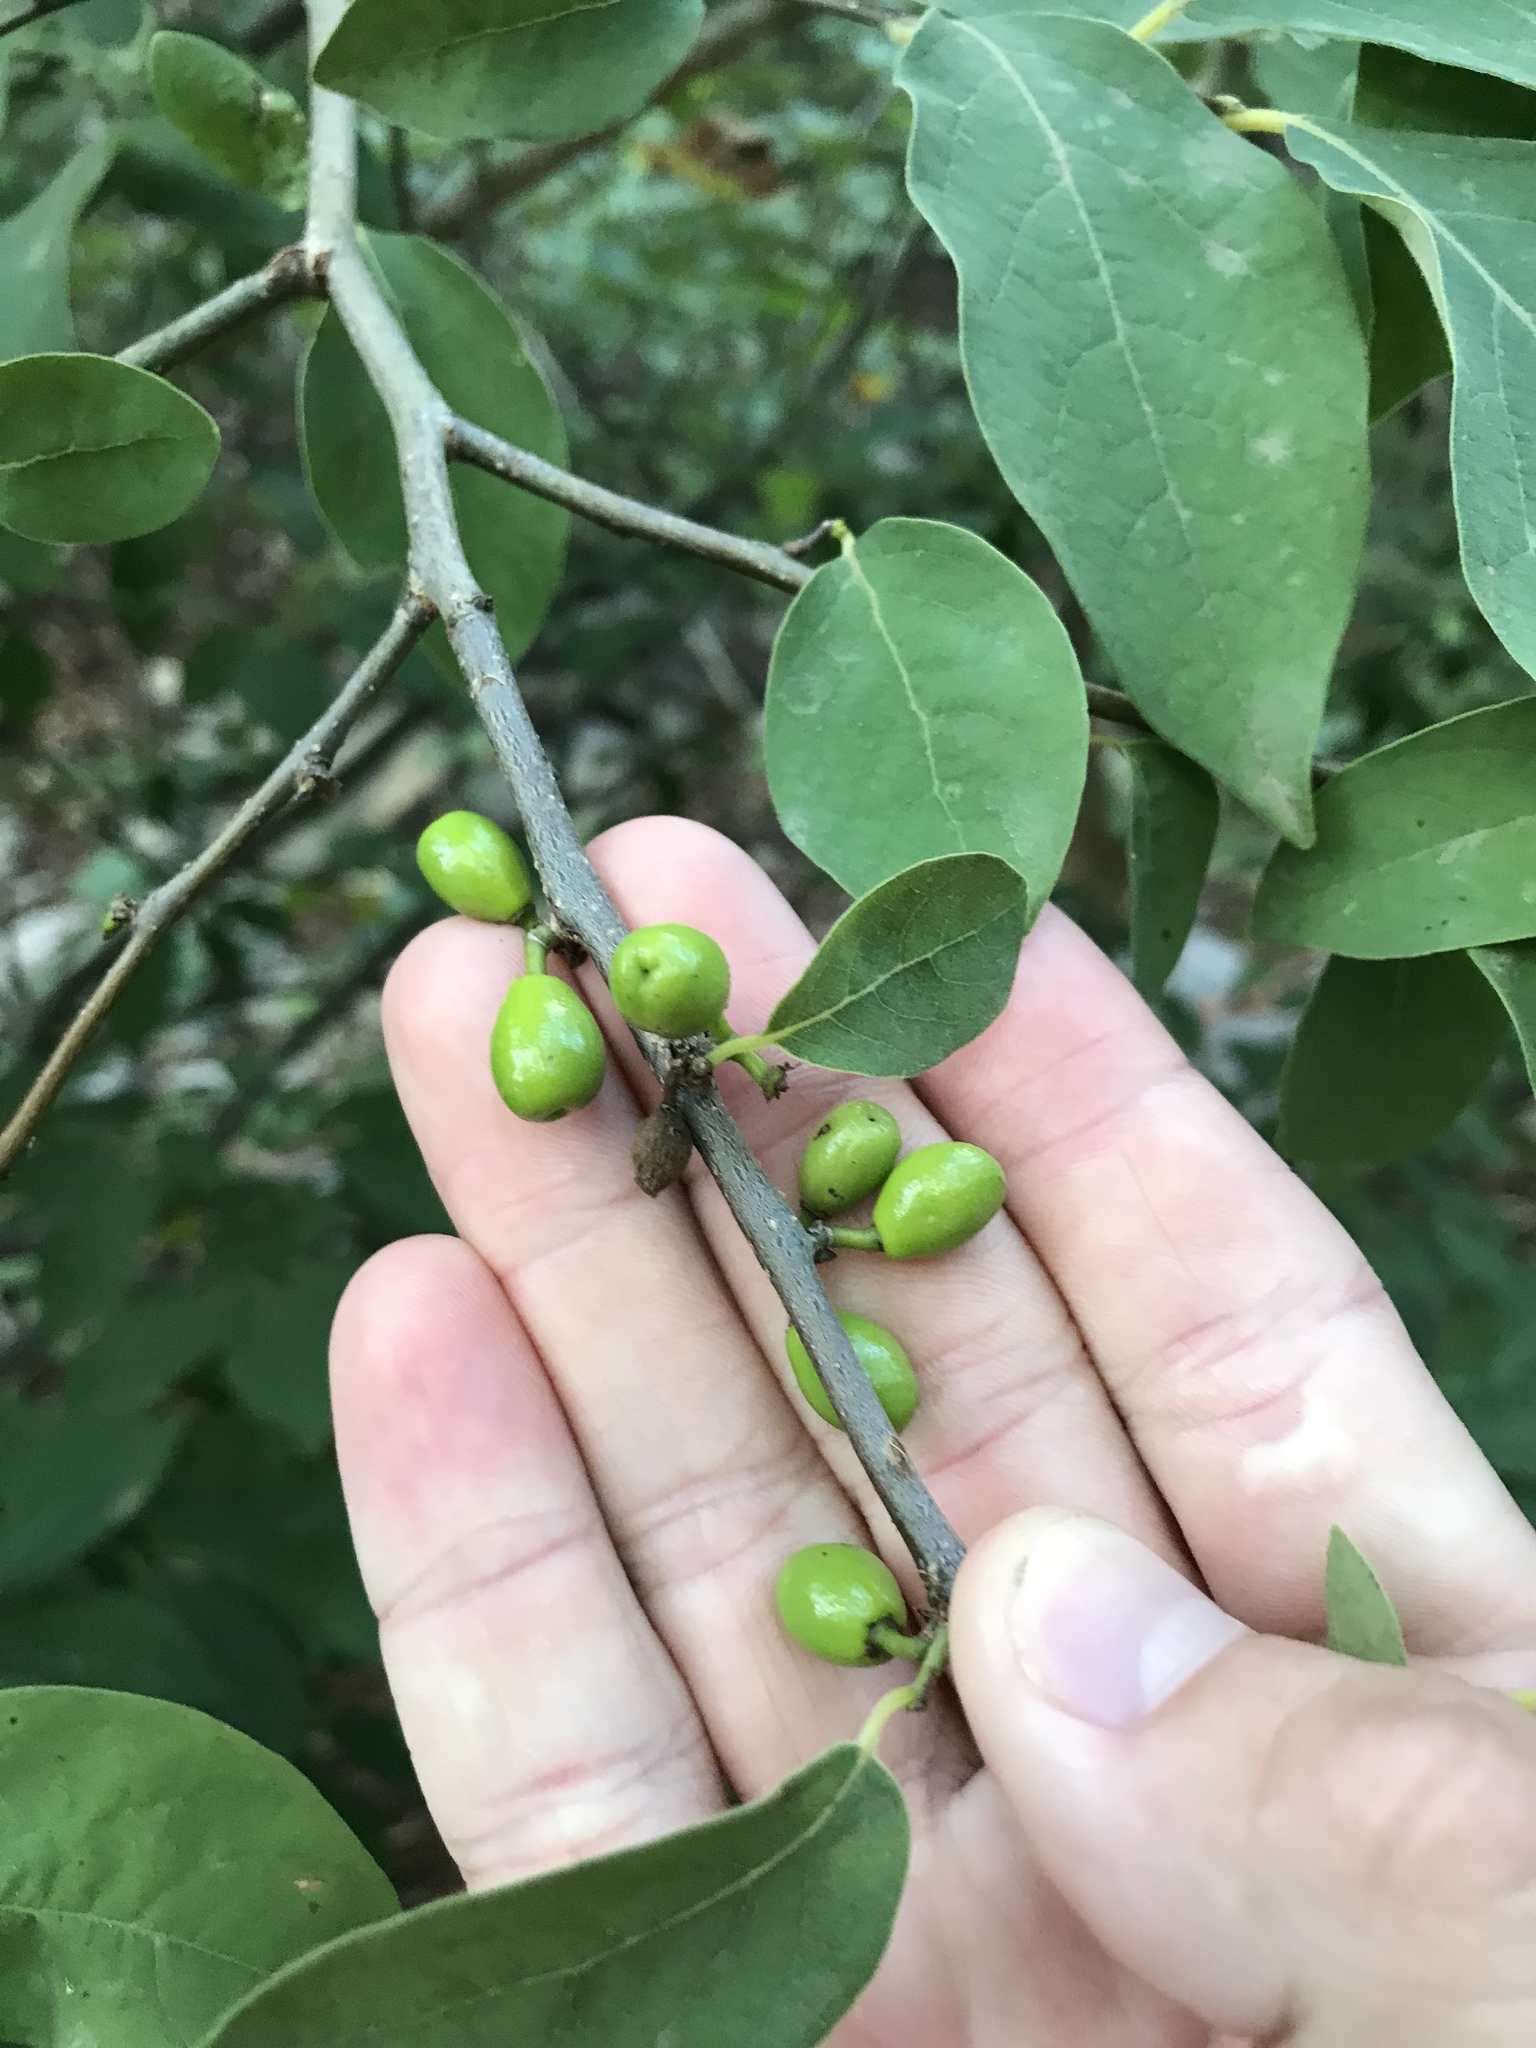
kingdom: Plantae
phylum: Tracheophyta
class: Magnoliopsida
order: Laurales
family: Lauraceae
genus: Lindera
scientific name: Lindera benzoin
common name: Spicebush
